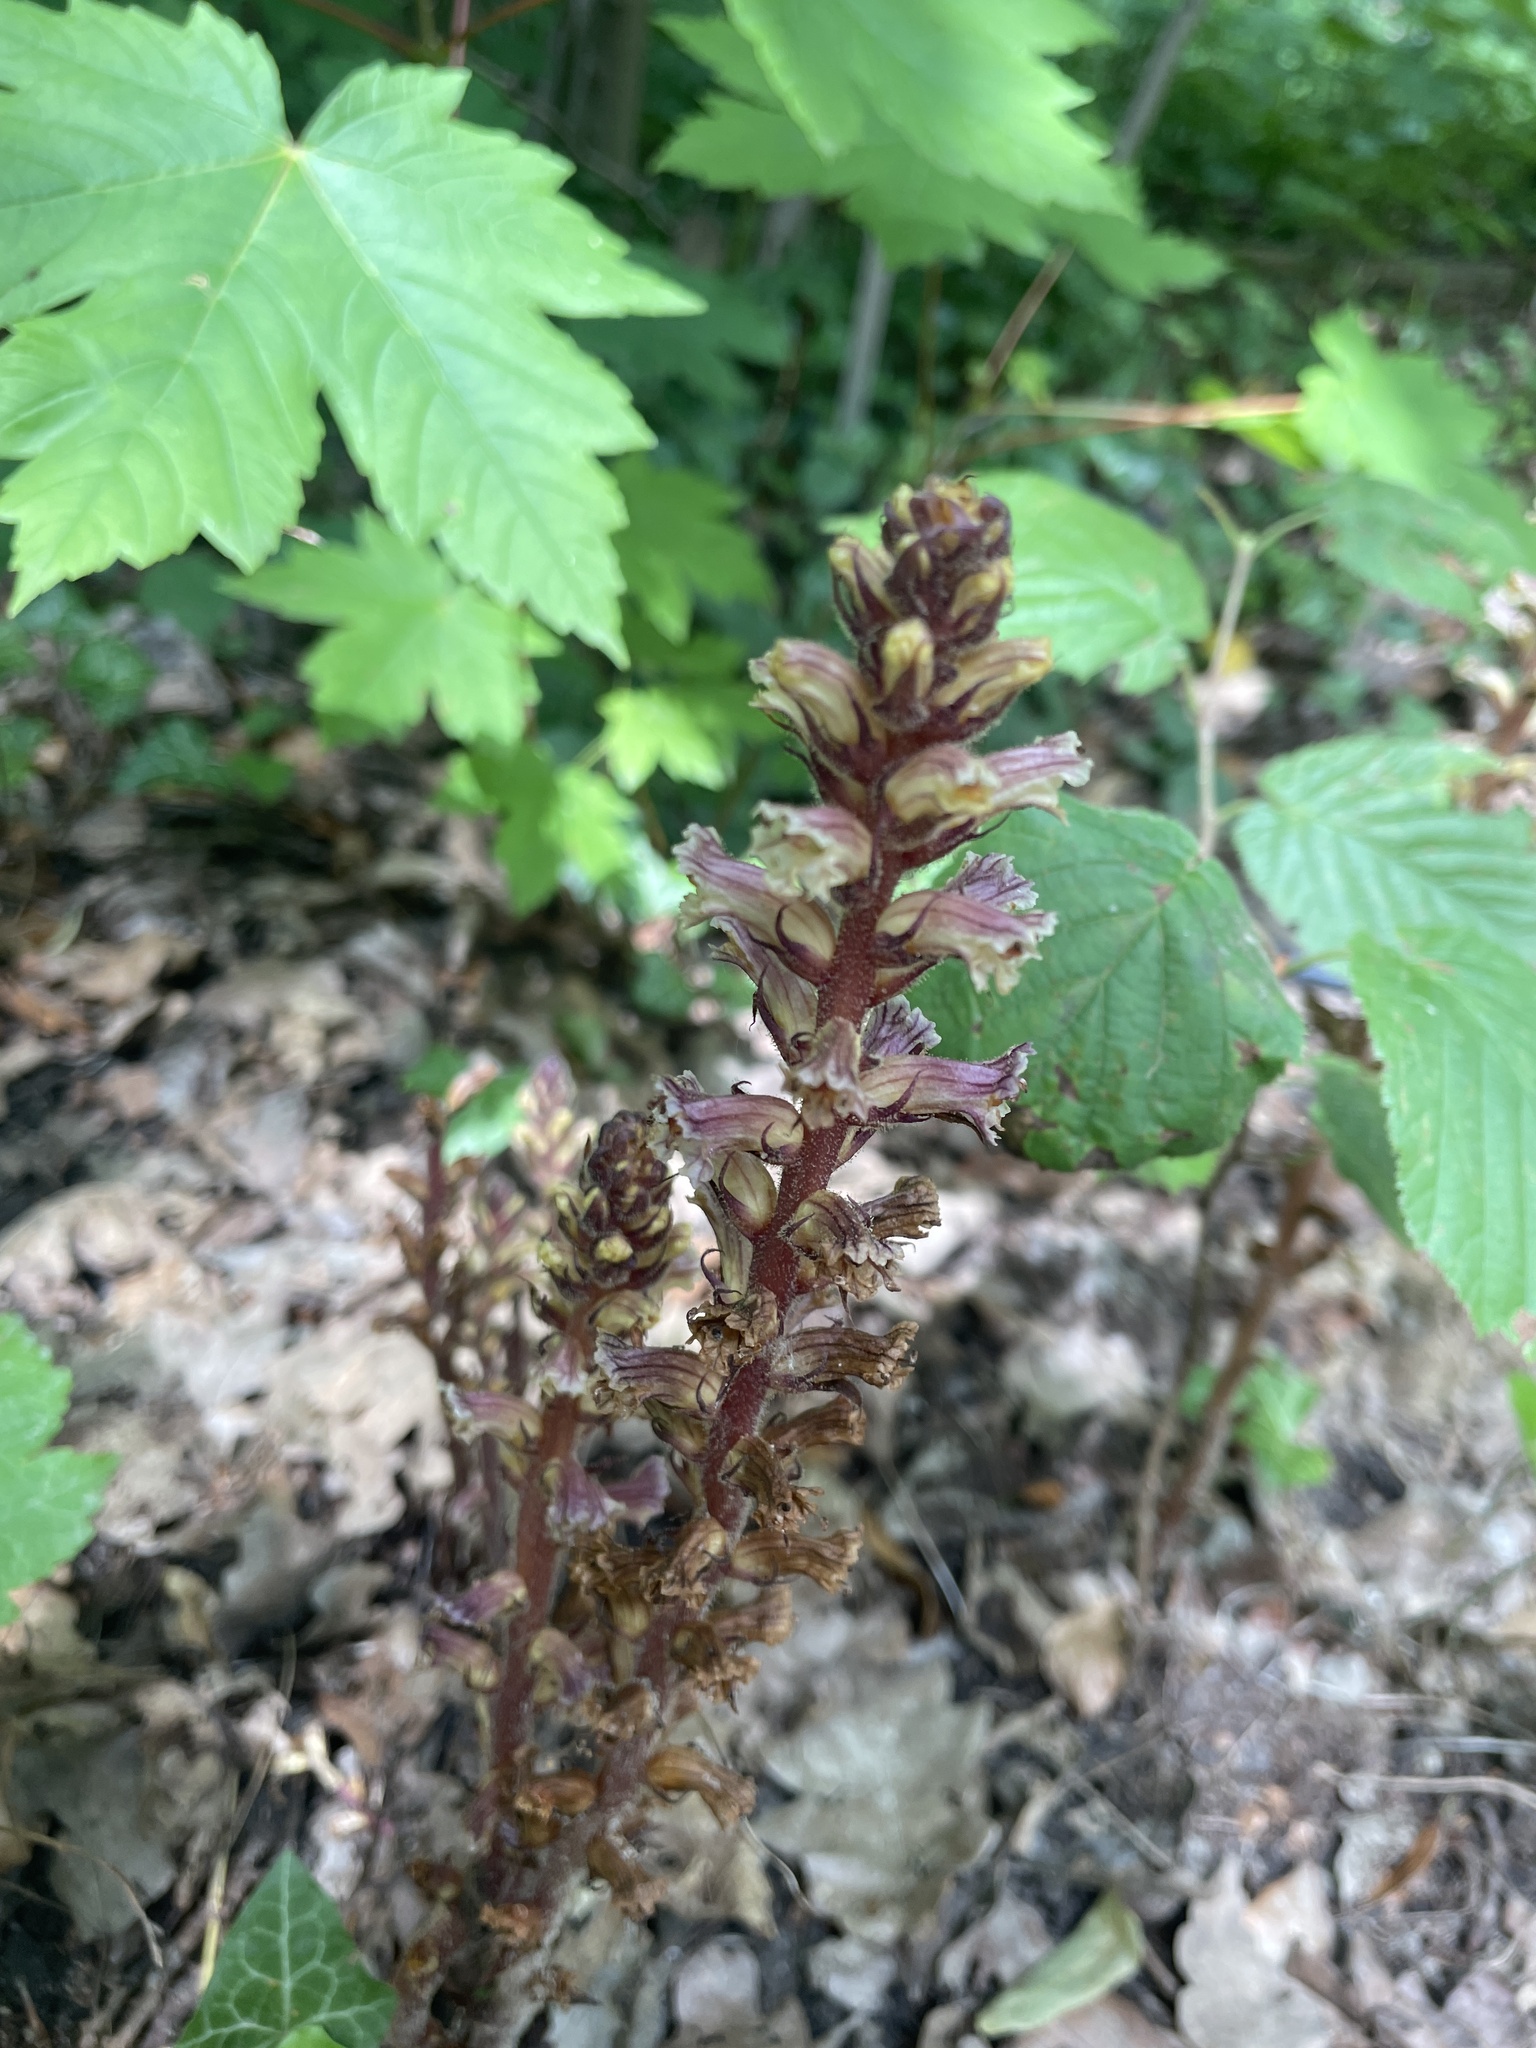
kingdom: Plantae
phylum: Tracheophyta
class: Magnoliopsida
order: Lamiales
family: Orobanchaceae
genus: Orobanche
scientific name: Orobanche hederae
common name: Ivy broomrape
